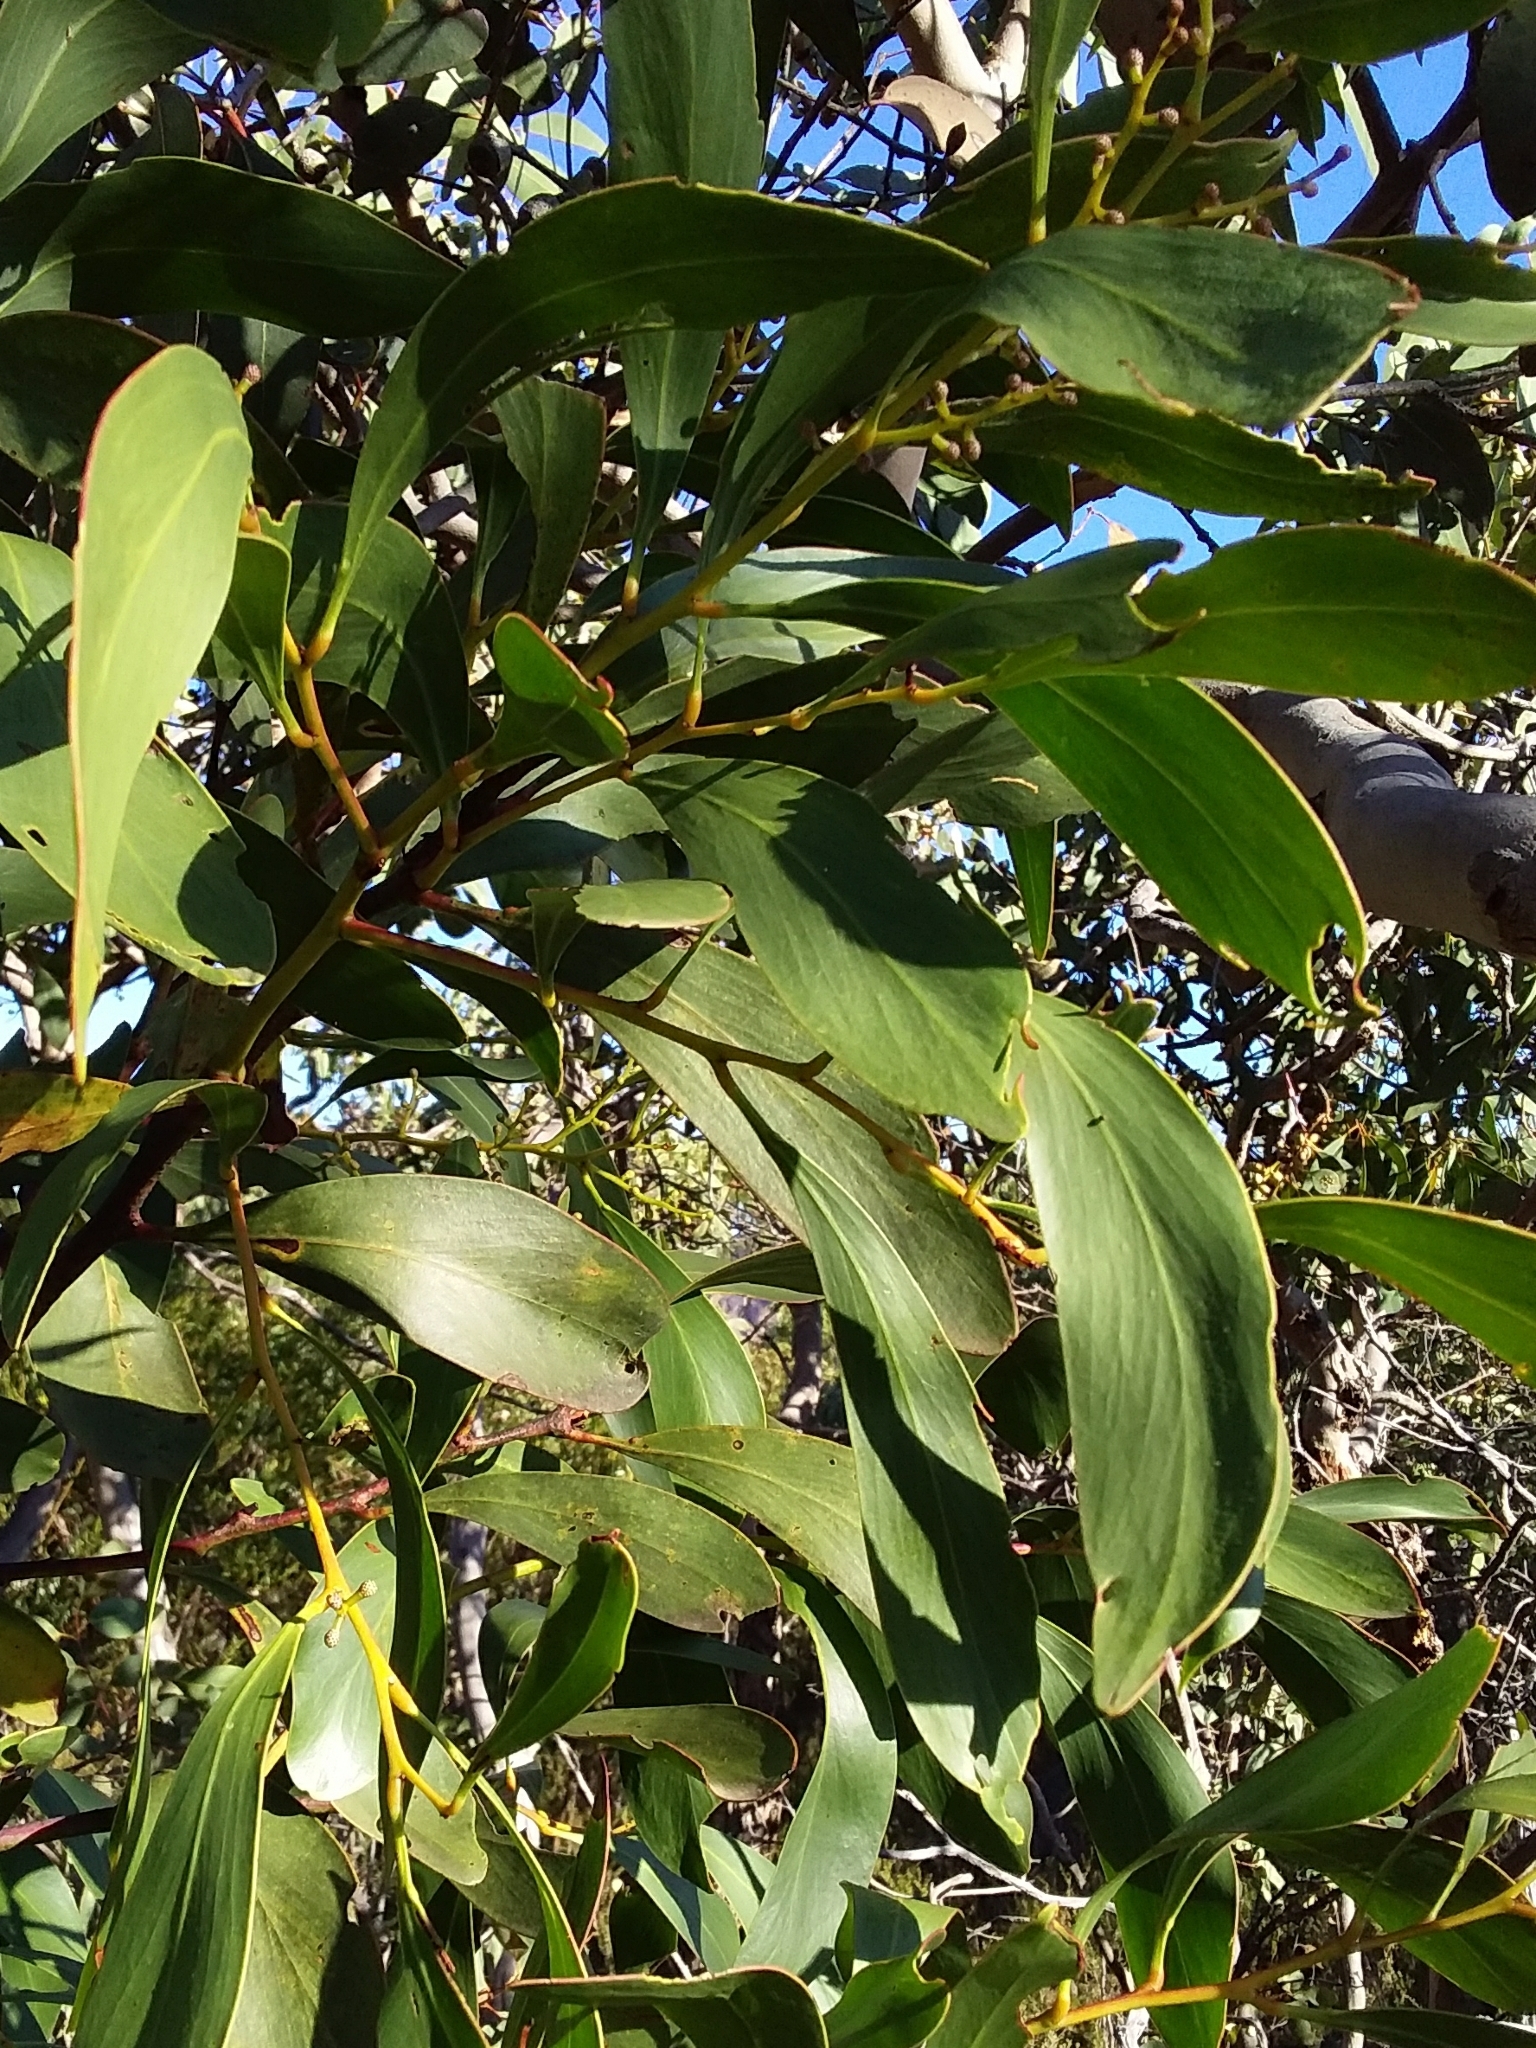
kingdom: Plantae
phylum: Tracheophyta
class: Magnoliopsida
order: Fabales
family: Fabaceae
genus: Acacia
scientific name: Acacia pycnantha
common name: Golden wattle
